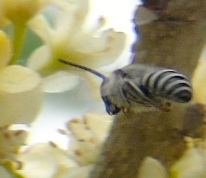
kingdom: Animalia
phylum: Arthropoda
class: Insecta
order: Hymenoptera
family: Colletidae
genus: Colletes
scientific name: Colletes
